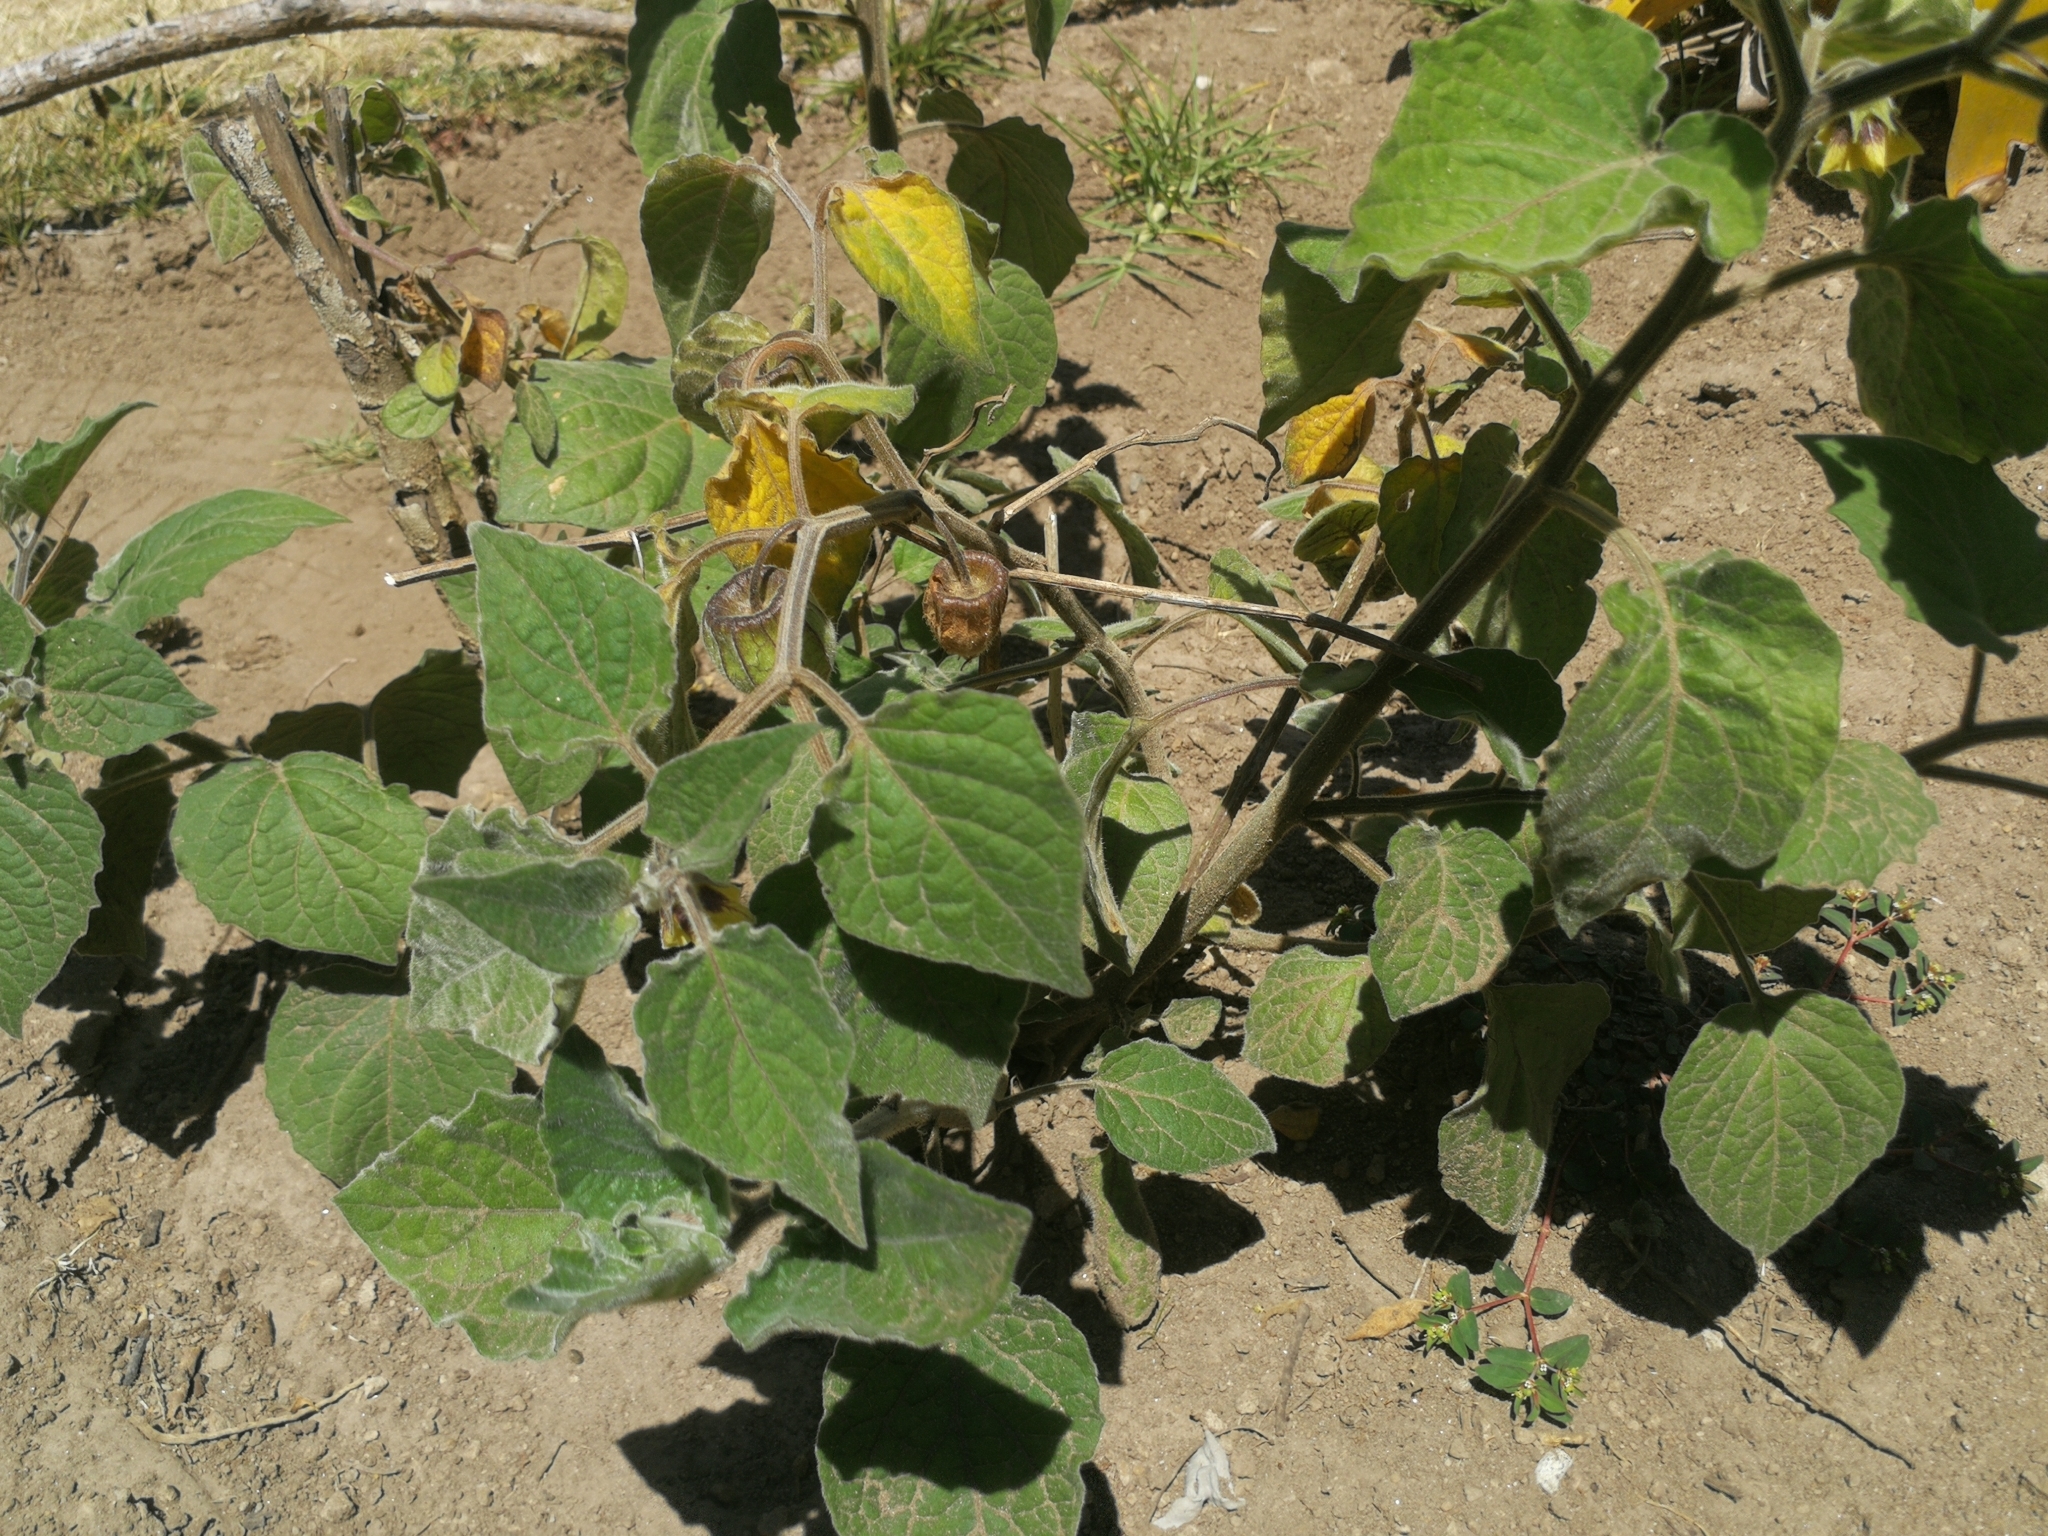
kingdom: Plantae
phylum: Tracheophyta
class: Magnoliopsida
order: Solanales
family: Solanaceae
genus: Physalis
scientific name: Physalis peruviana
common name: Cape-gooseberry
